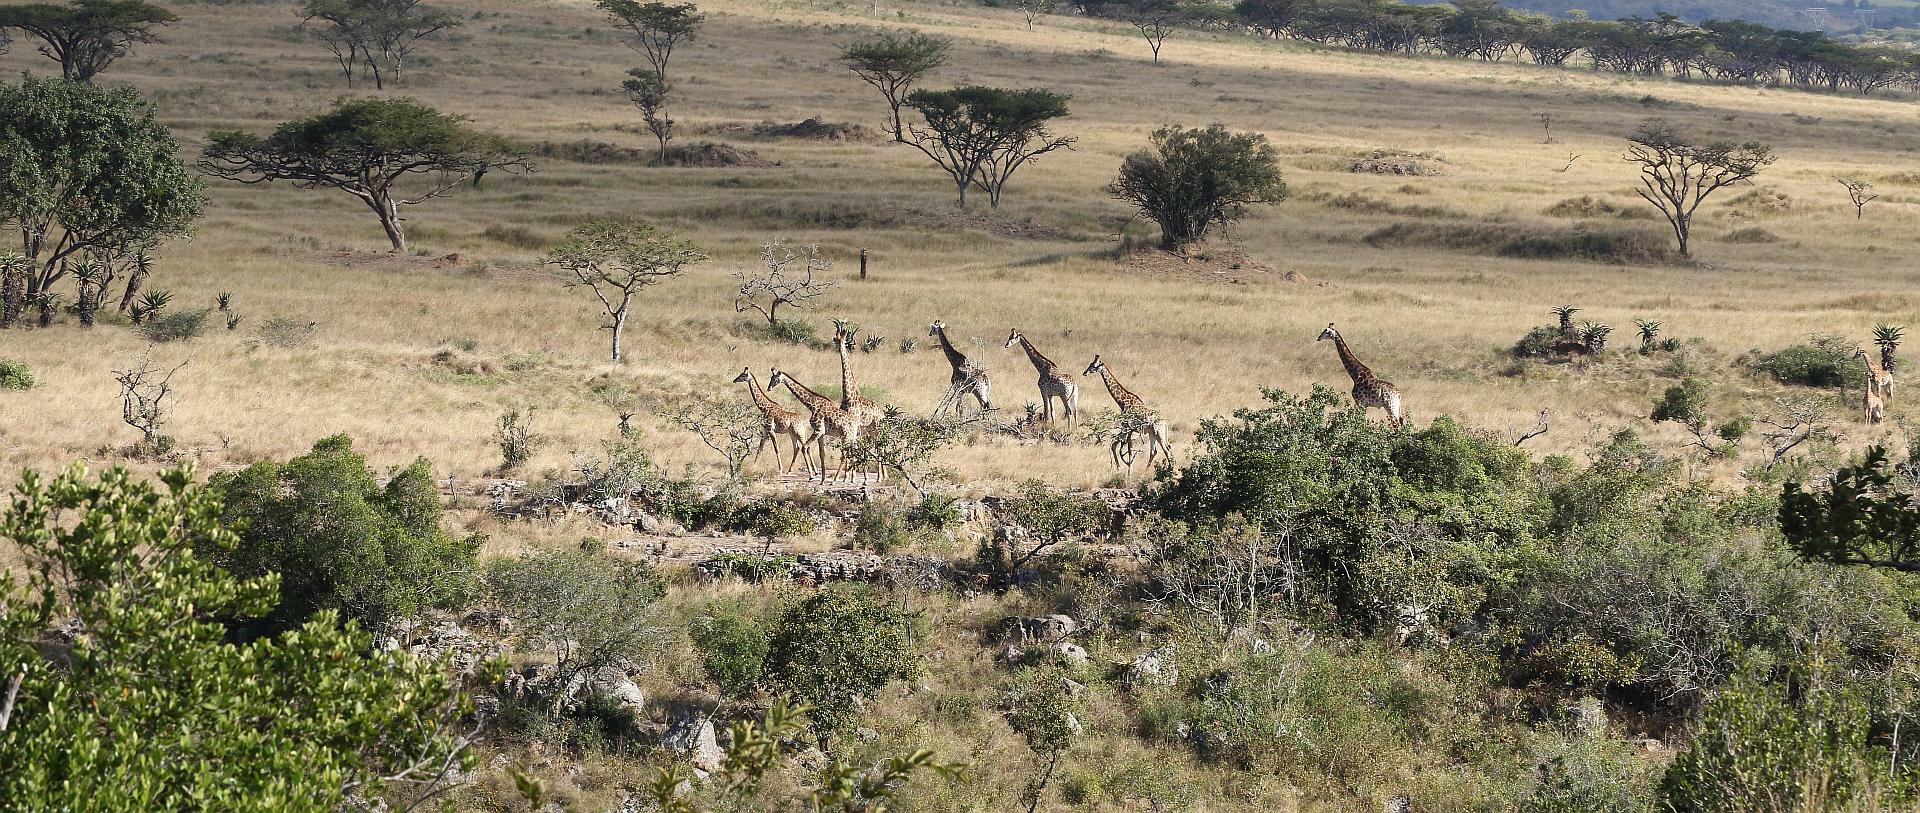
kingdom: Animalia
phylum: Chordata
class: Mammalia
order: Artiodactyla
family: Giraffidae
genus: Giraffa
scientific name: Giraffa giraffa
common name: Southern giraffe
